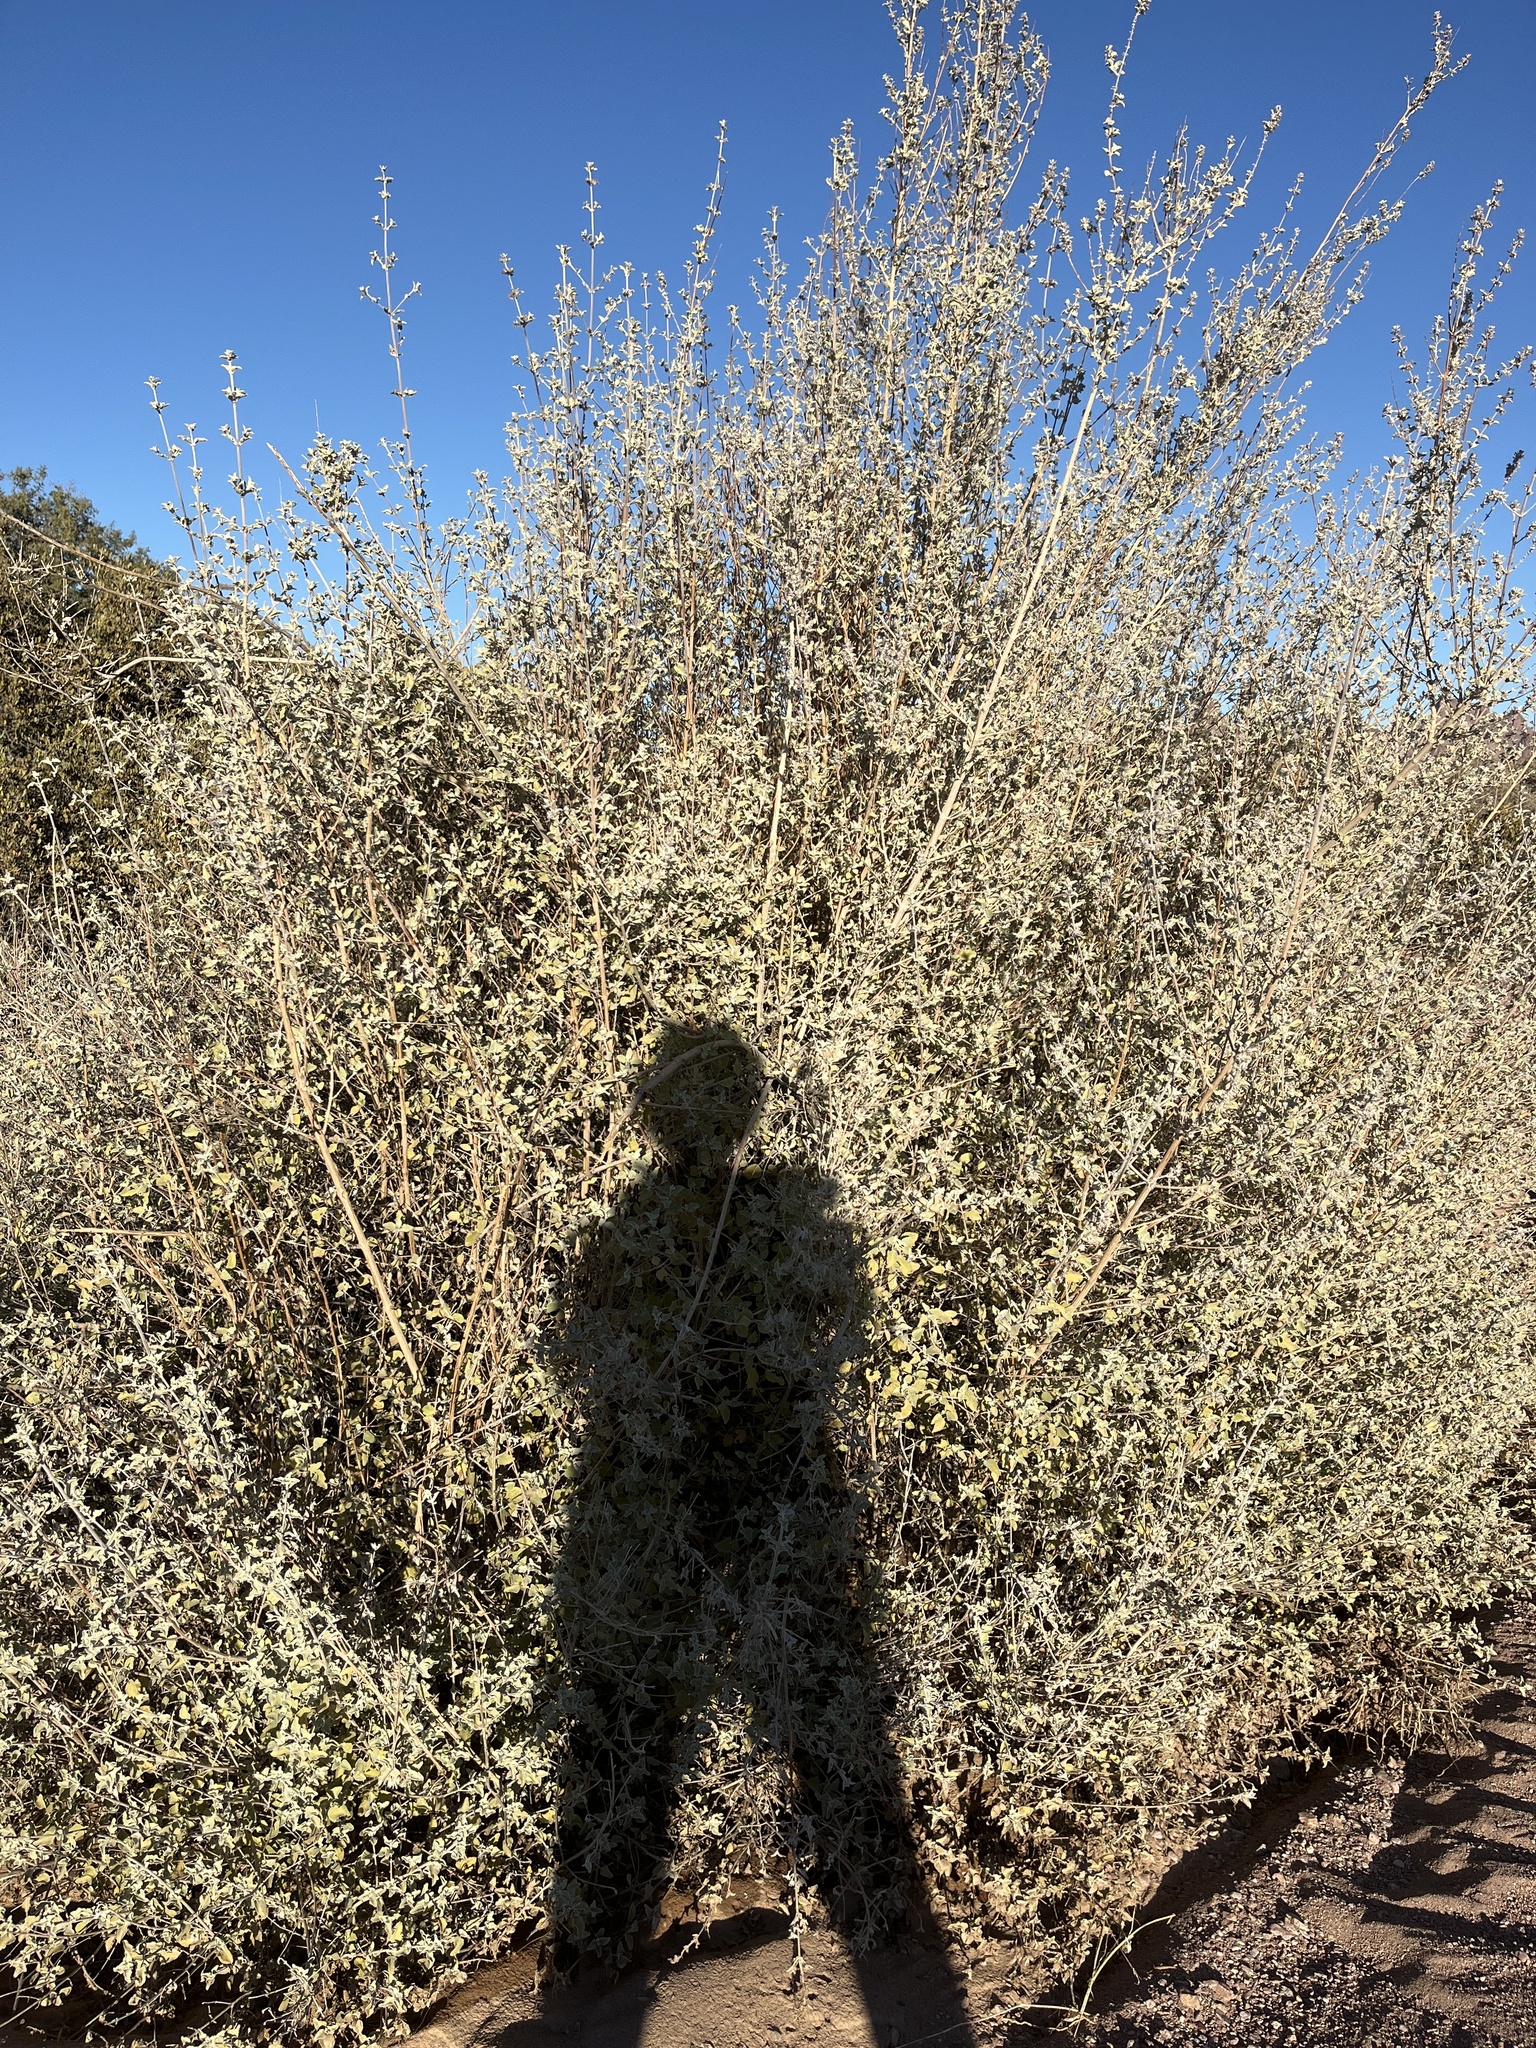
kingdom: Plantae
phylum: Tracheophyta
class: Magnoliopsida
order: Lamiales
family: Lamiaceae
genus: Condea
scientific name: Condea emoryi
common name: Chia
